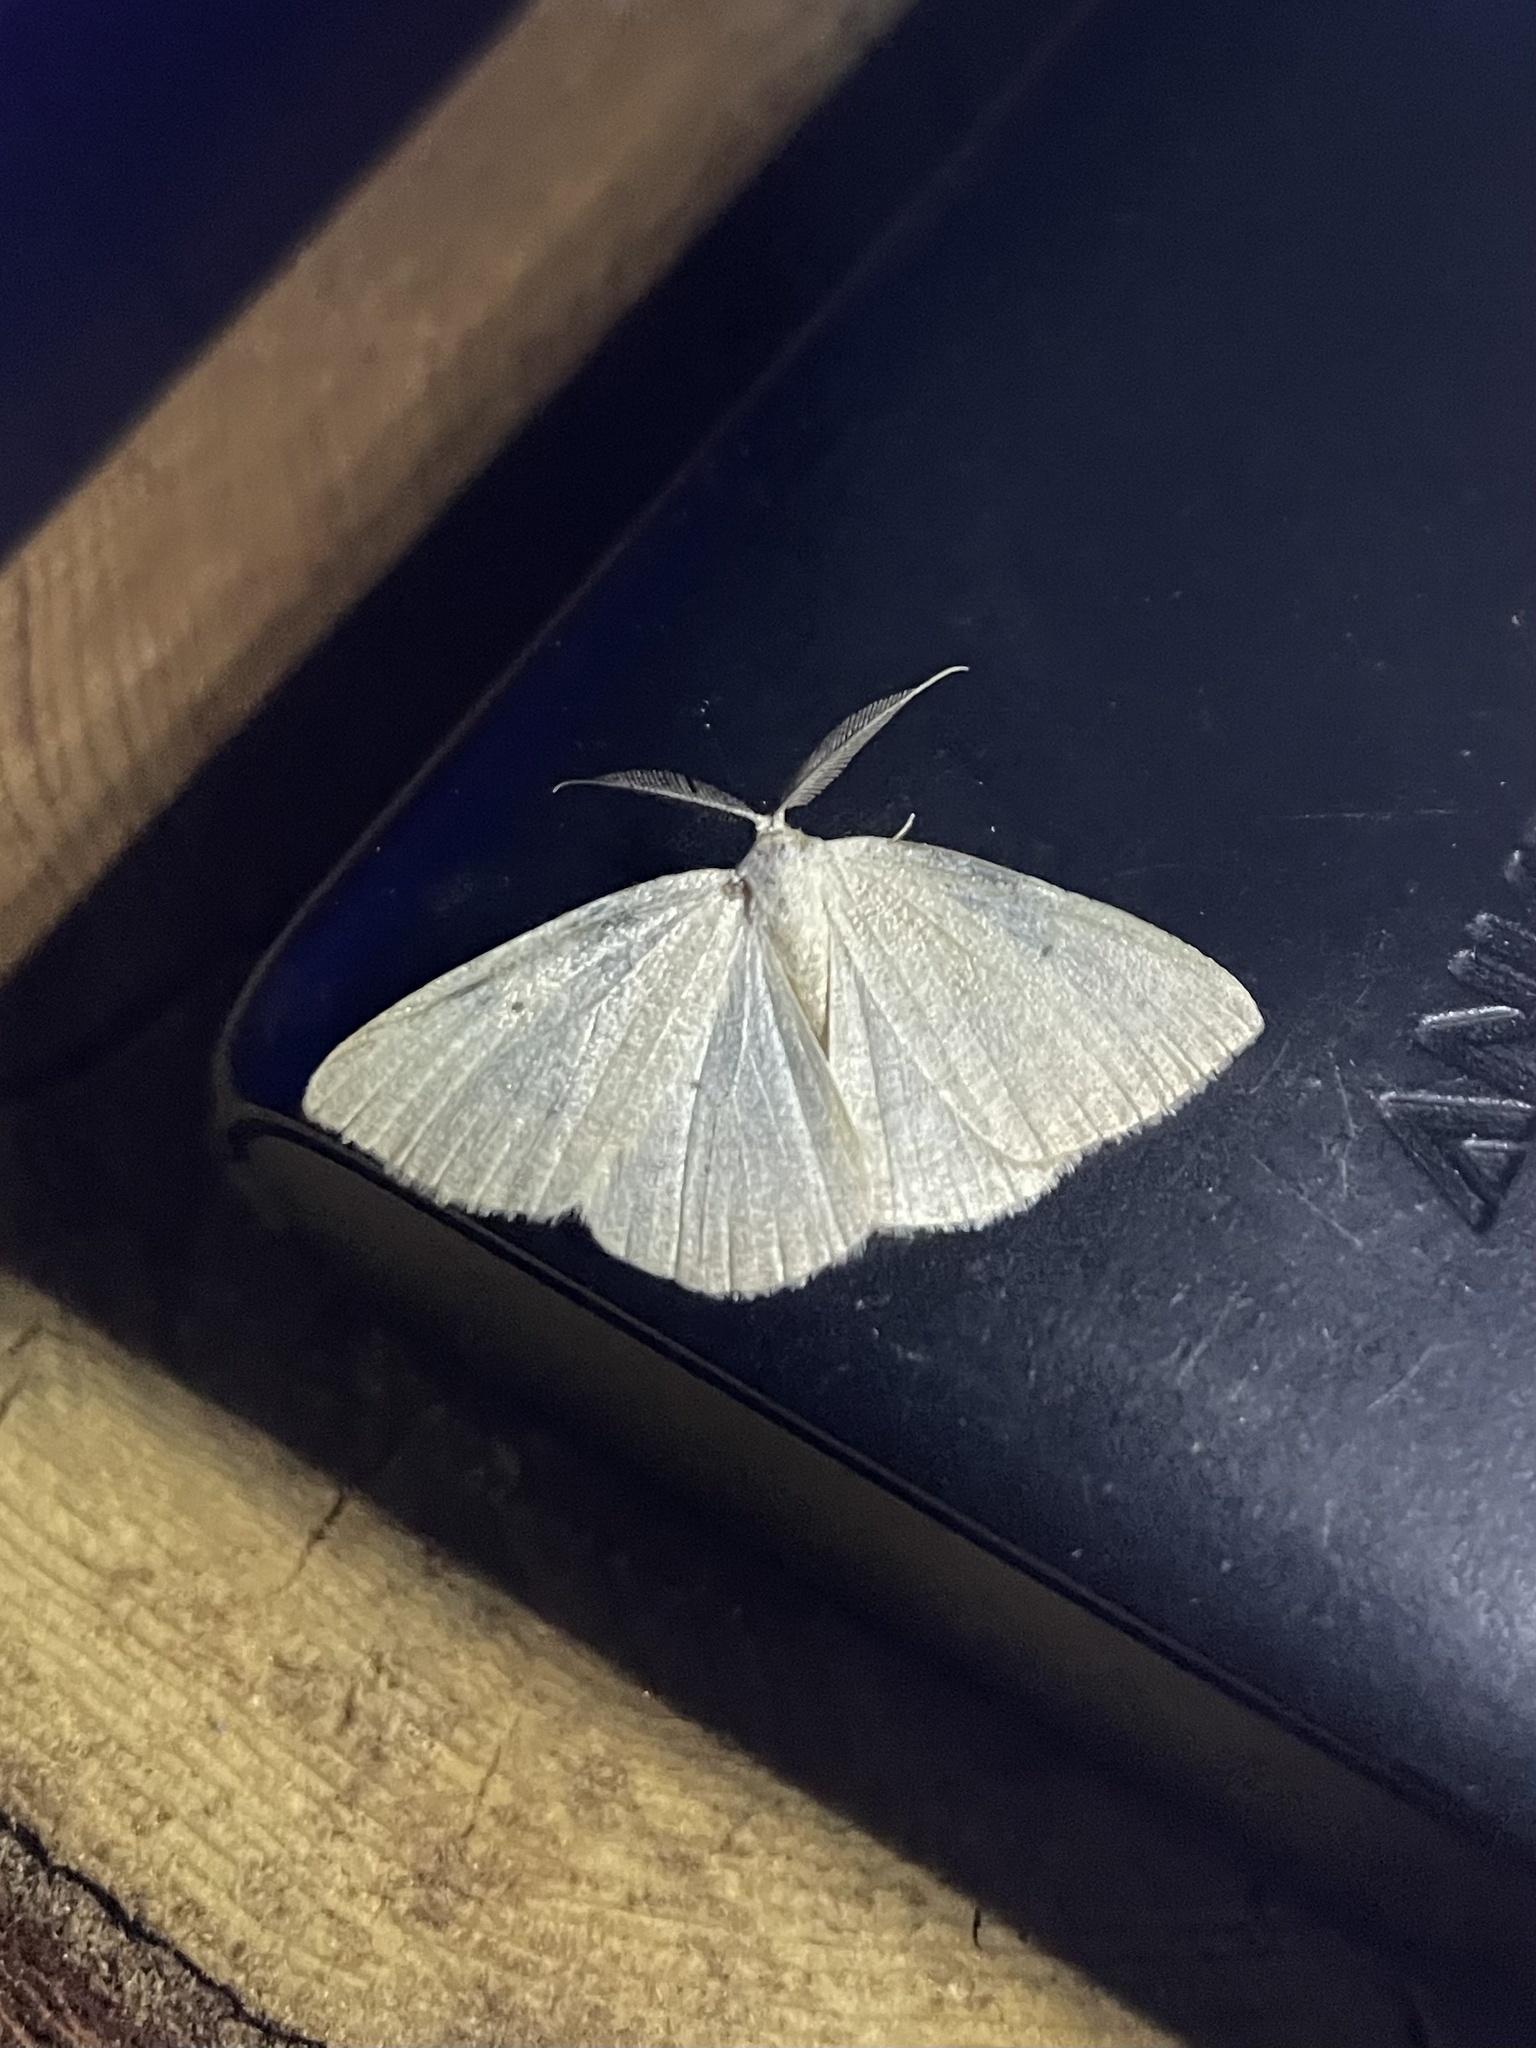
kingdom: Animalia
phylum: Arthropoda
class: Insecta
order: Lepidoptera
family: Geometridae
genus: Eudrepanulatrix
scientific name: Eudrepanulatrix rectifascia
